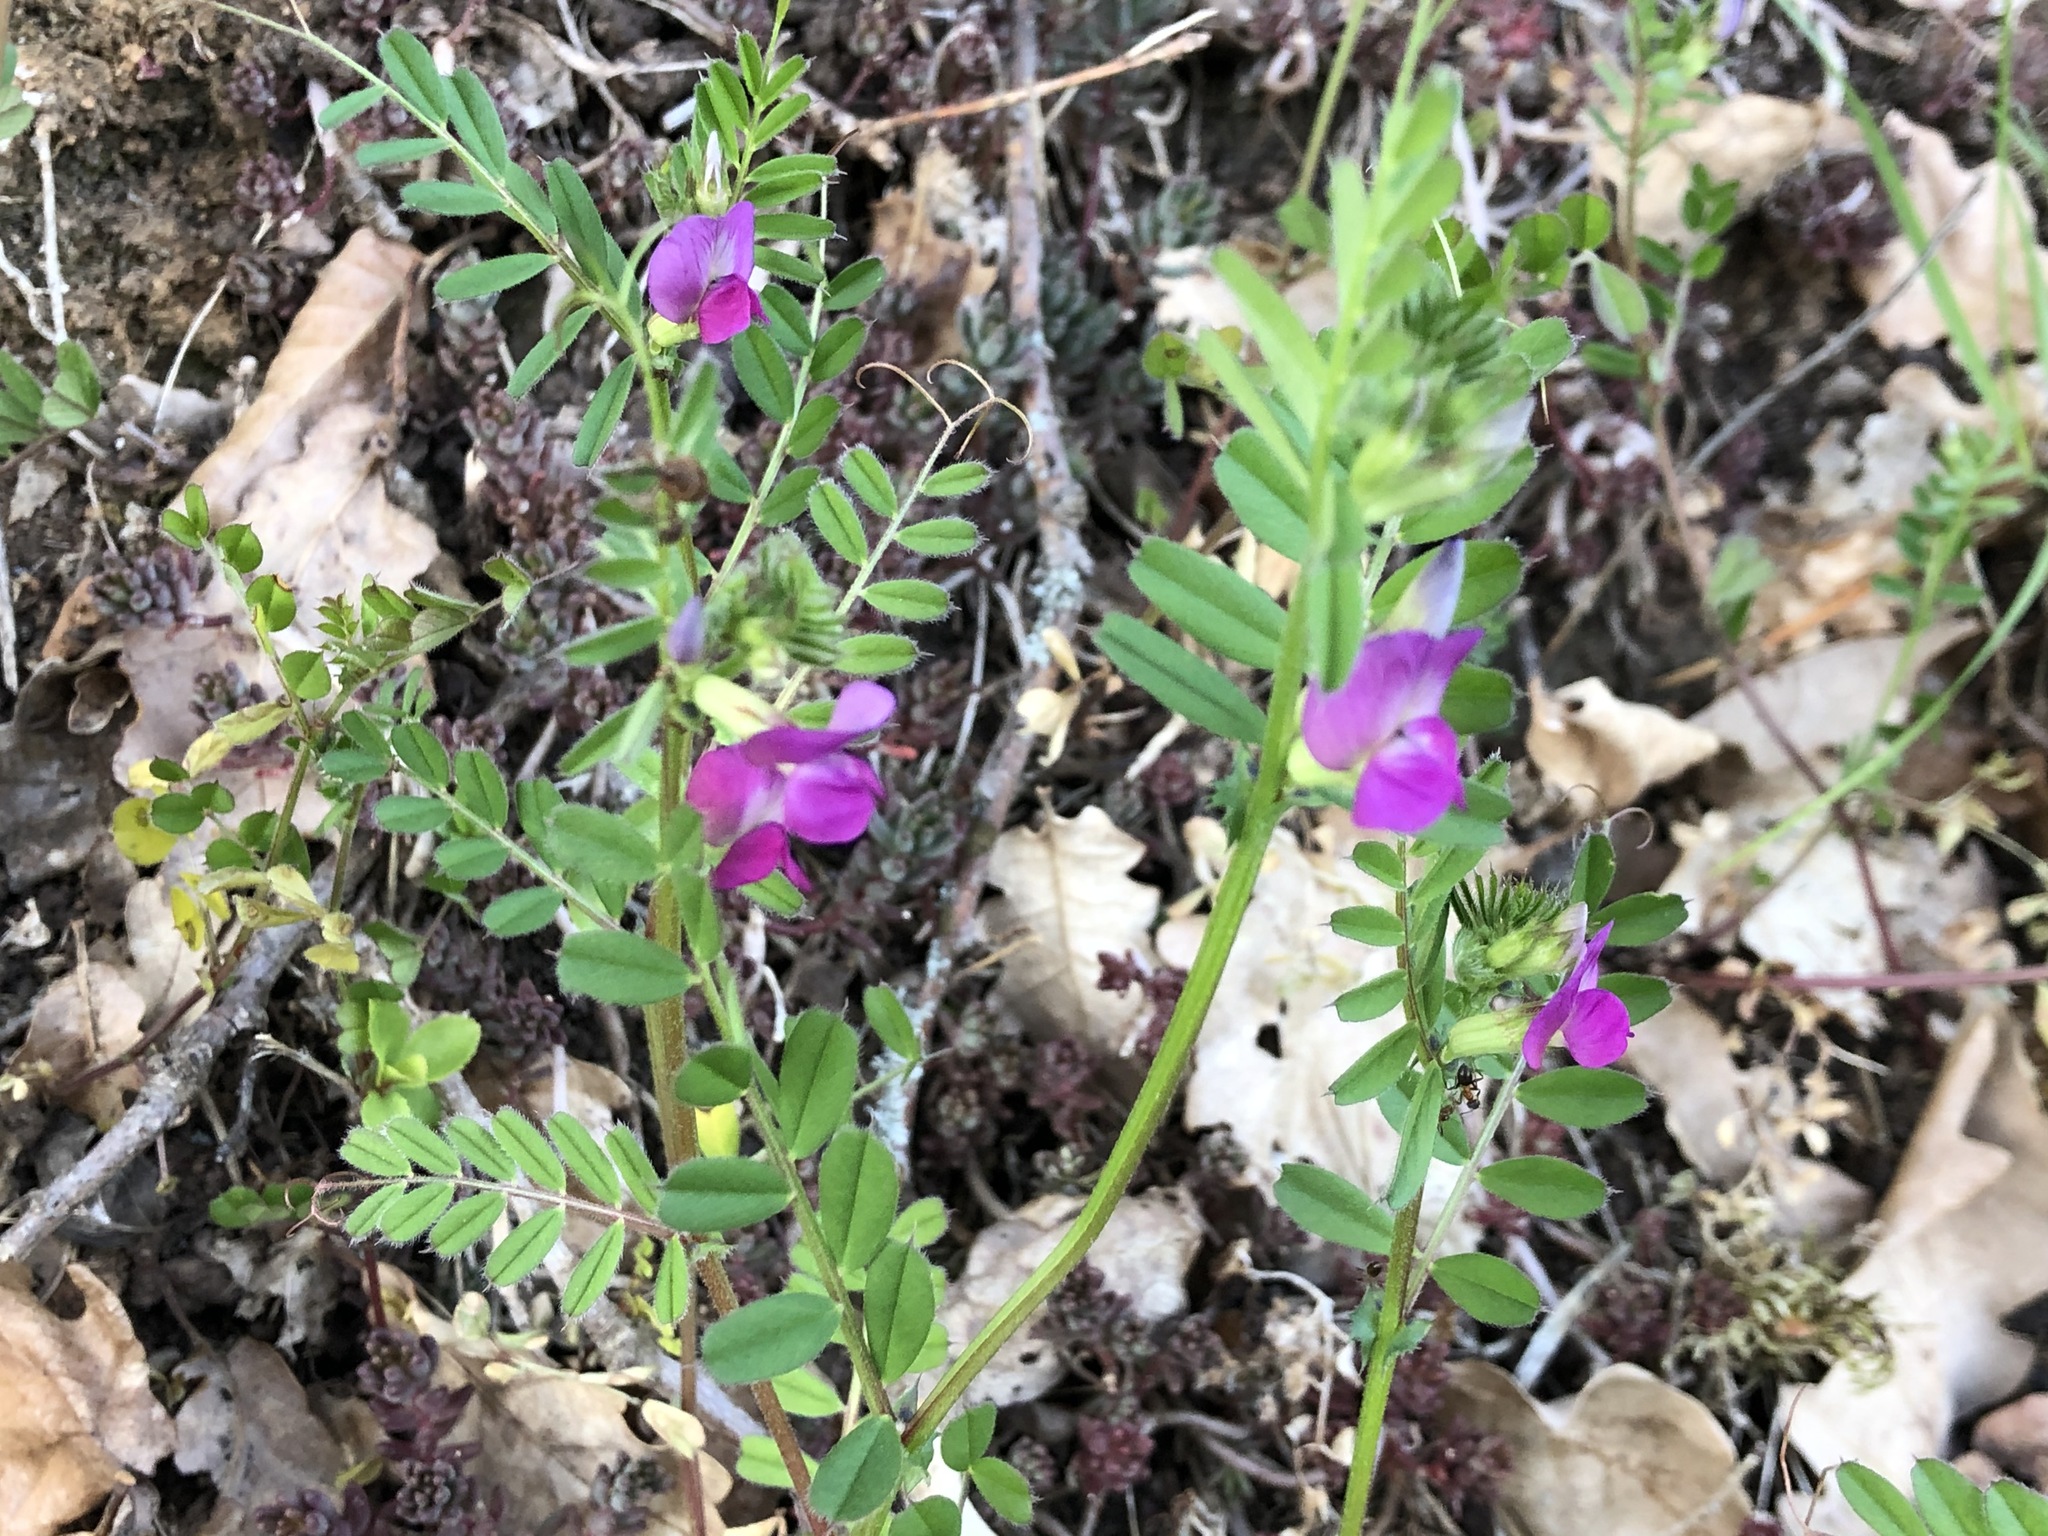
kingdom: Plantae
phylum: Tracheophyta
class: Magnoliopsida
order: Fabales
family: Fabaceae
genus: Vicia
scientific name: Vicia sativa
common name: Garden vetch
